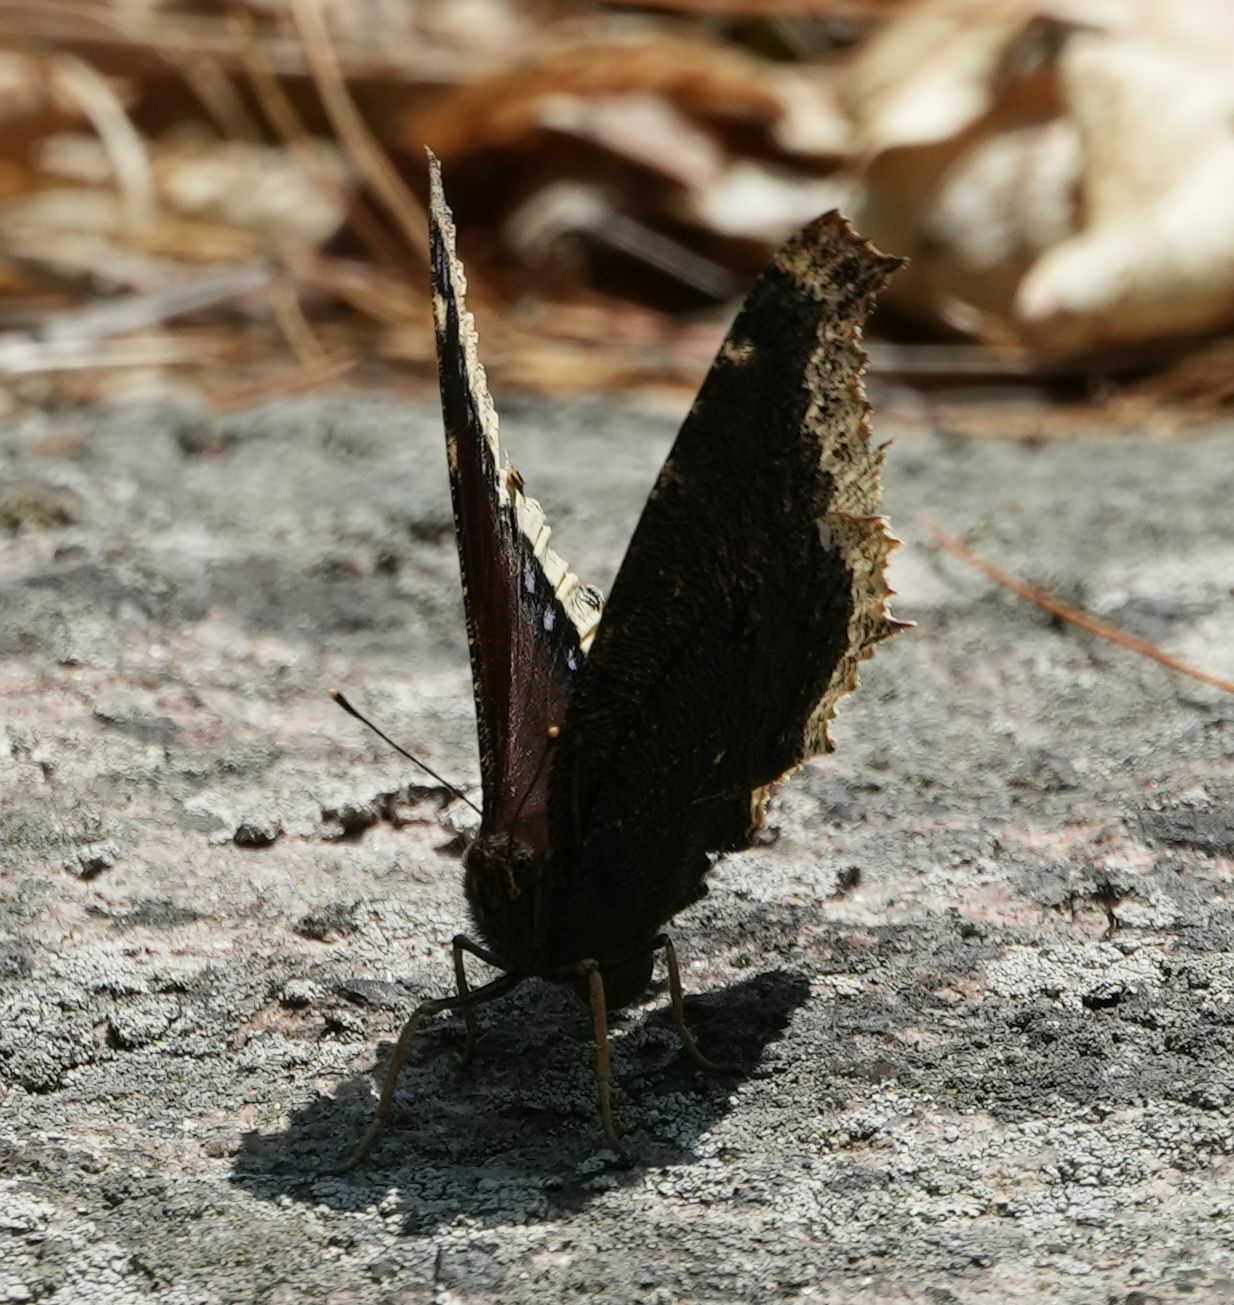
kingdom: Animalia
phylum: Arthropoda
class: Insecta
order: Lepidoptera
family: Nymphalidae
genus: Nymphalis
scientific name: Nymphalis antiopa
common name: Camberwell beauty
